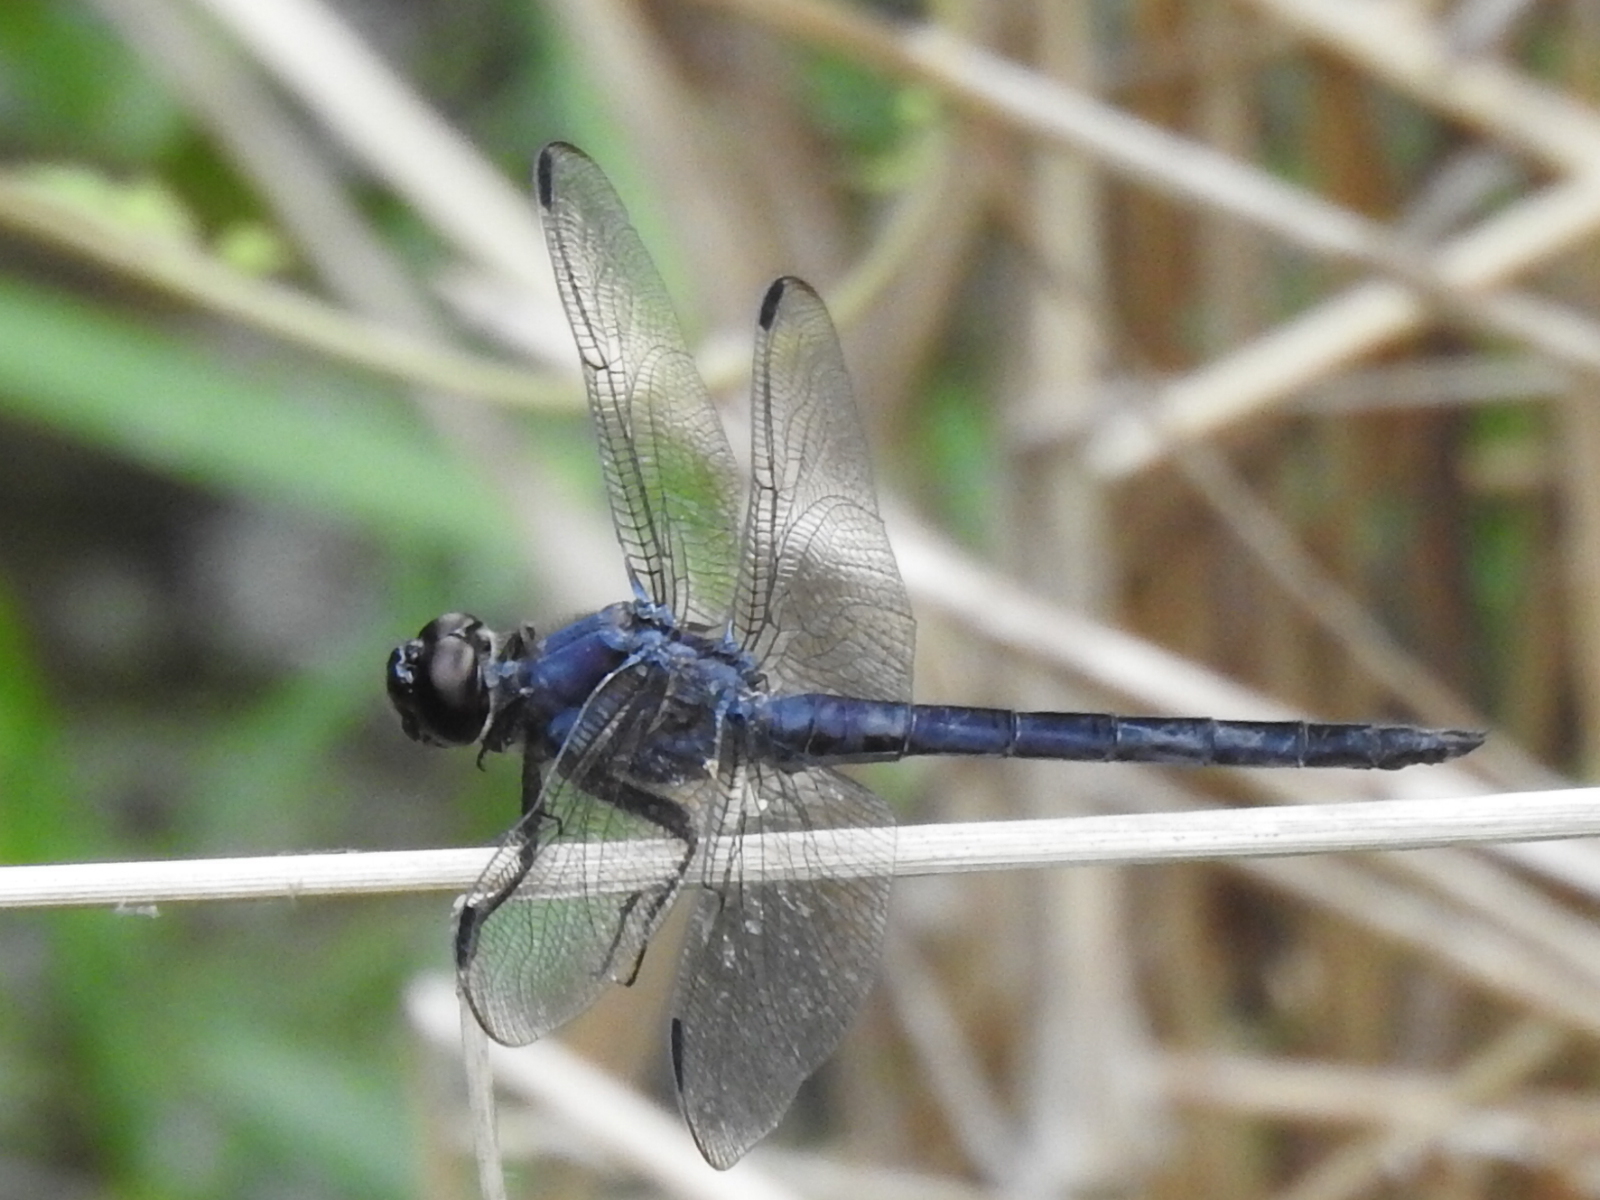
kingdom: Animalia
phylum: Arthropoda
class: Insecta
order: Odonata
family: Libellulidae
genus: Libellula
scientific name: Libellula incesta
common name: Slaty skimmer
